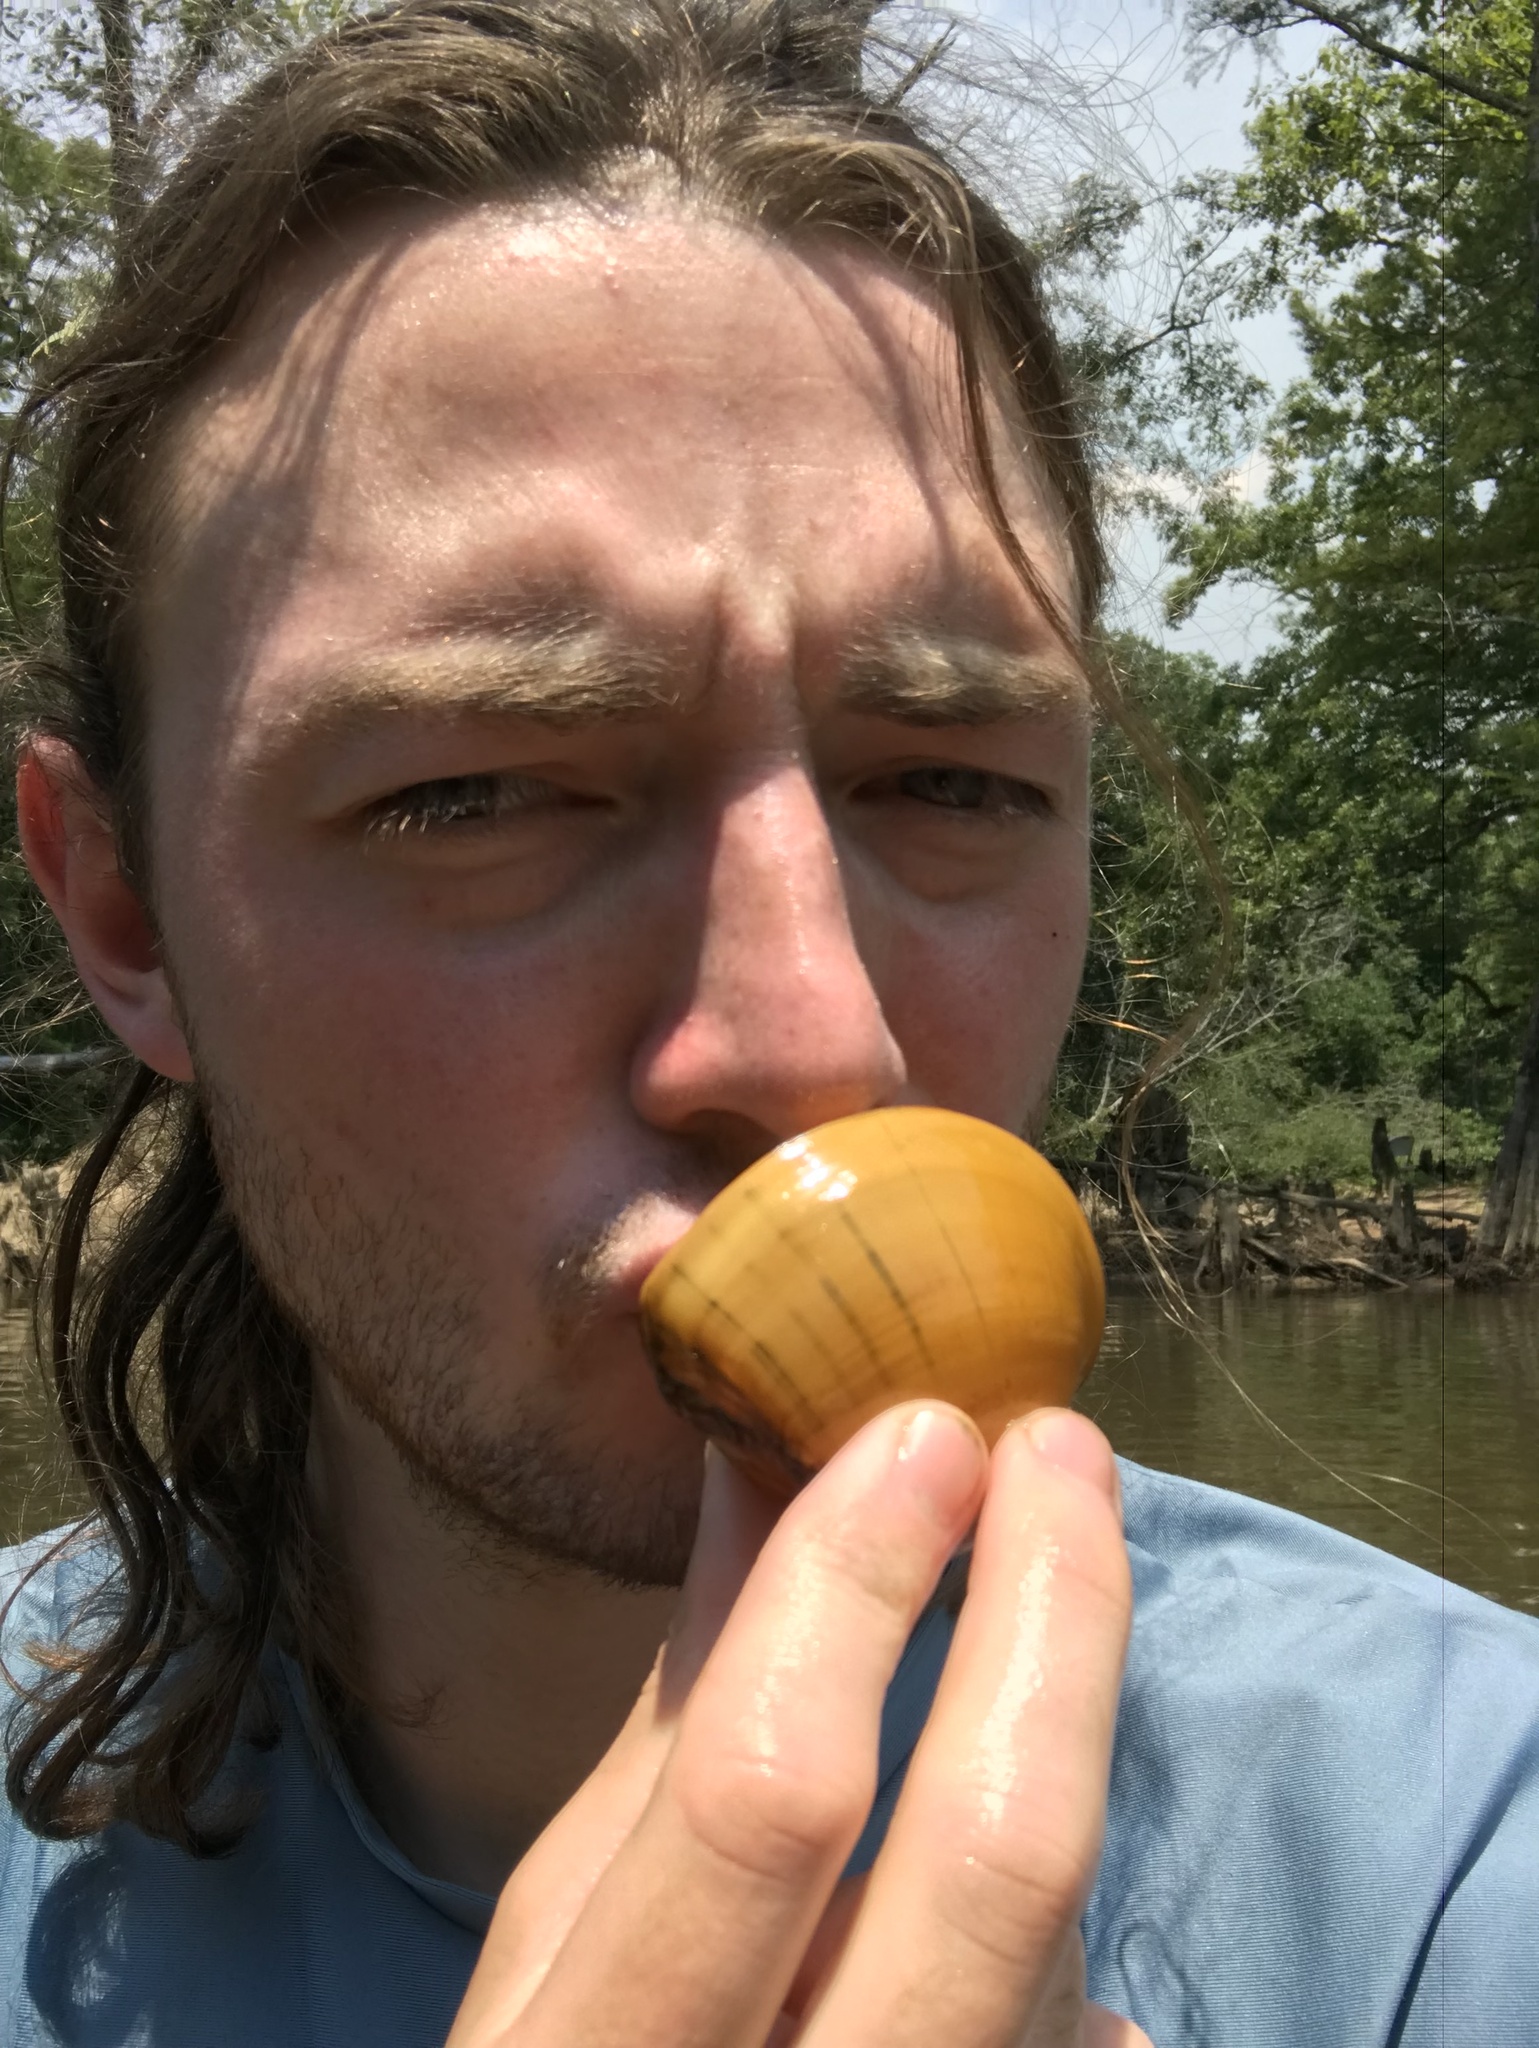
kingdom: Animalia
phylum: Mollusca
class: Bivalvia
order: Unionida
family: Unionidae
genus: Lampsilis
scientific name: Lampsilis ornata
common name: Southern pocketbook
